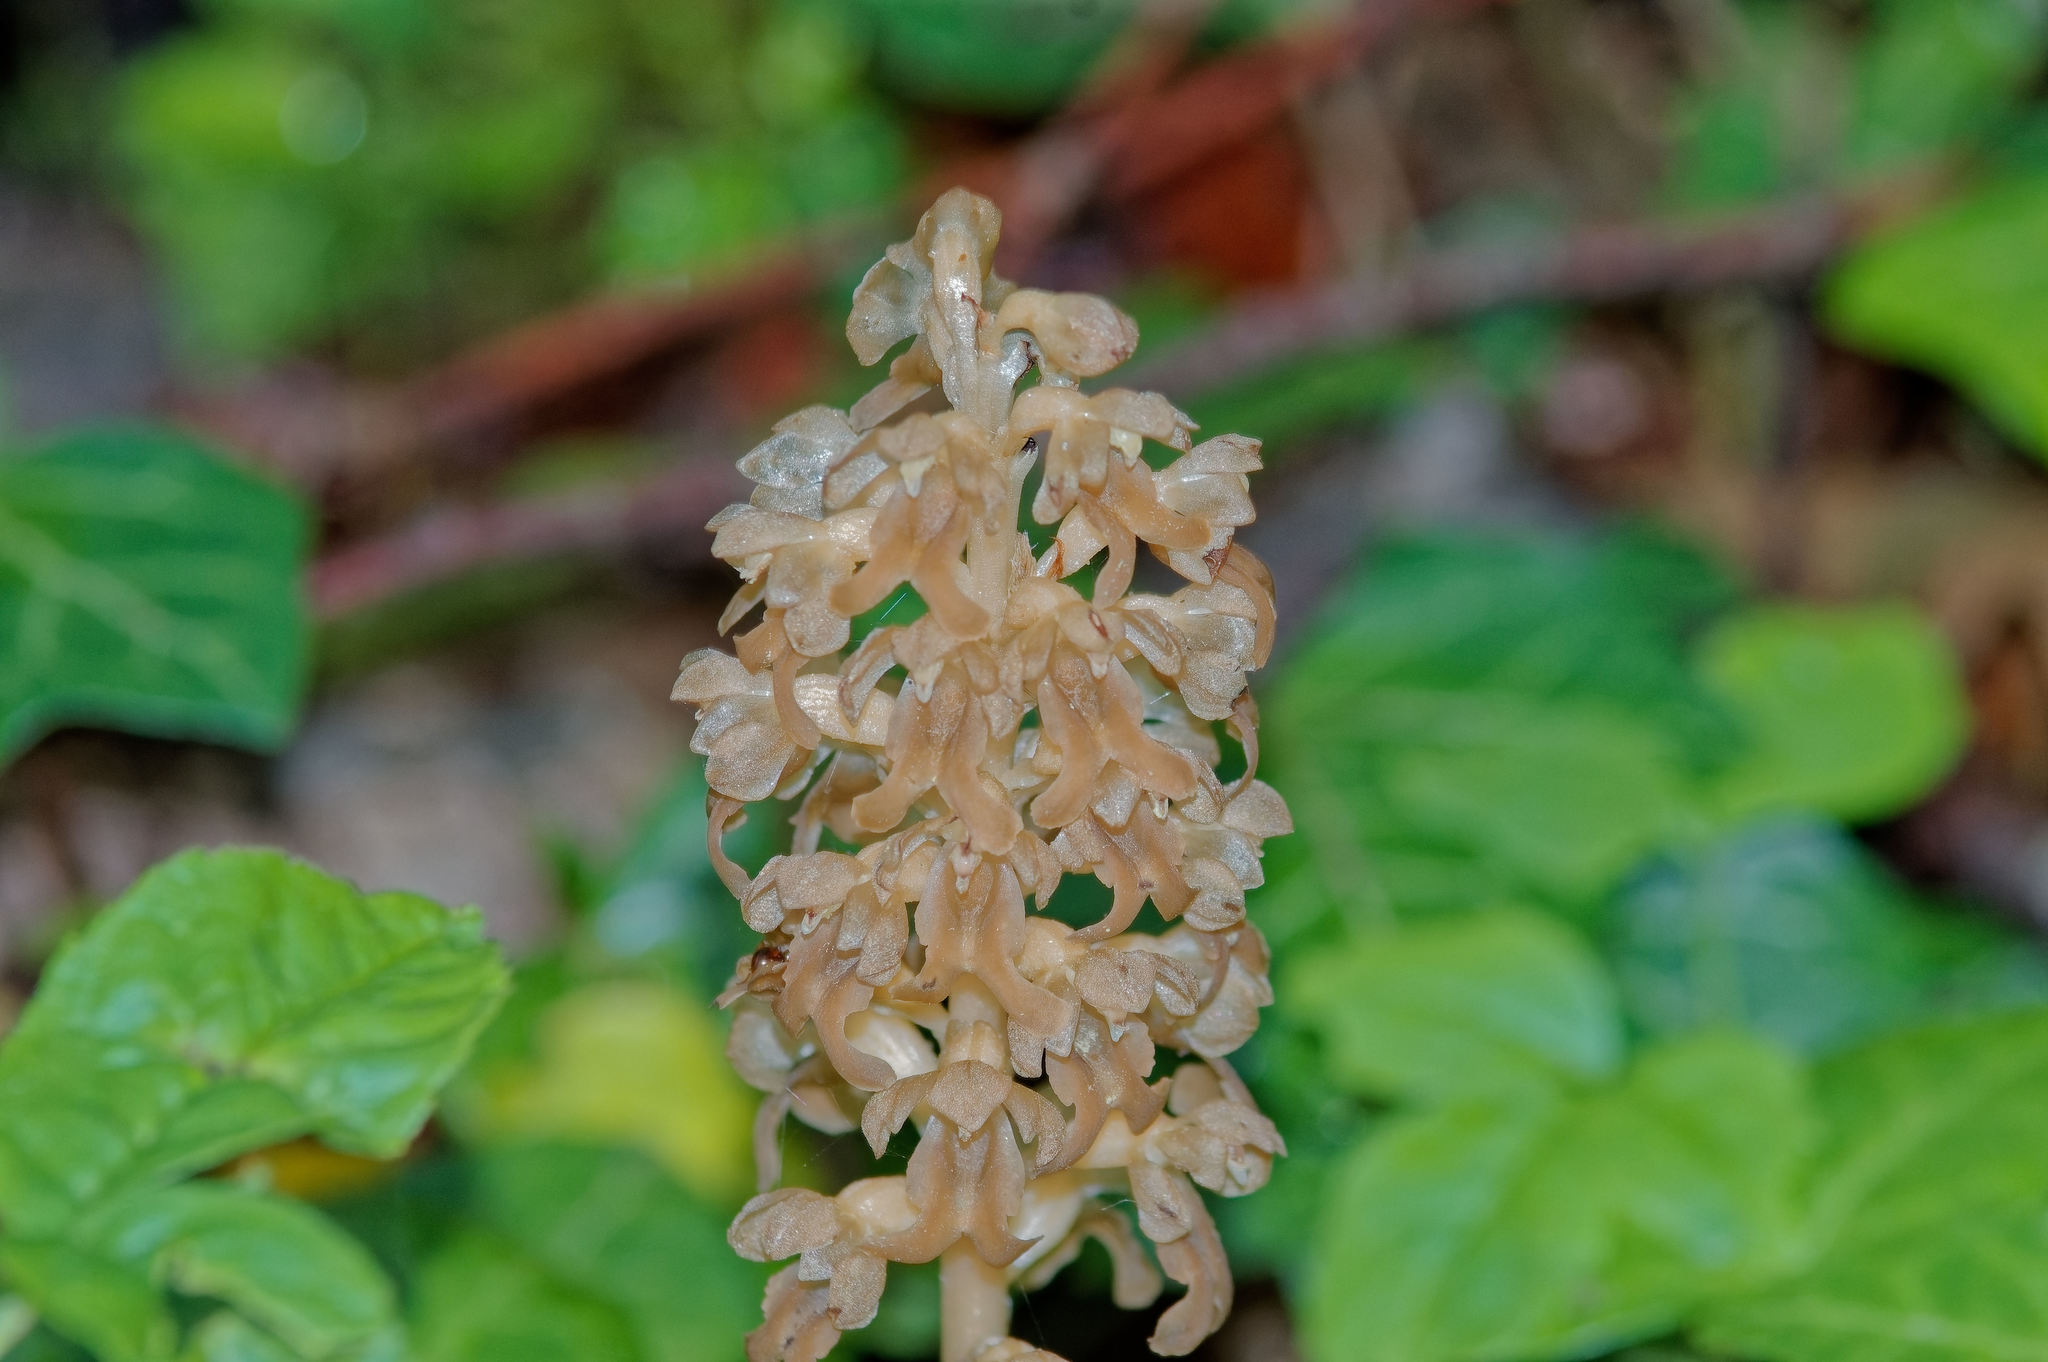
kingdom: Plantae
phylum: Tracheophyta
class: Liliopsida
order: Asparagales
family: Orchidaceae
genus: Neottia
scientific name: Neottia nidus-avis
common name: Bird's-nest orchid
